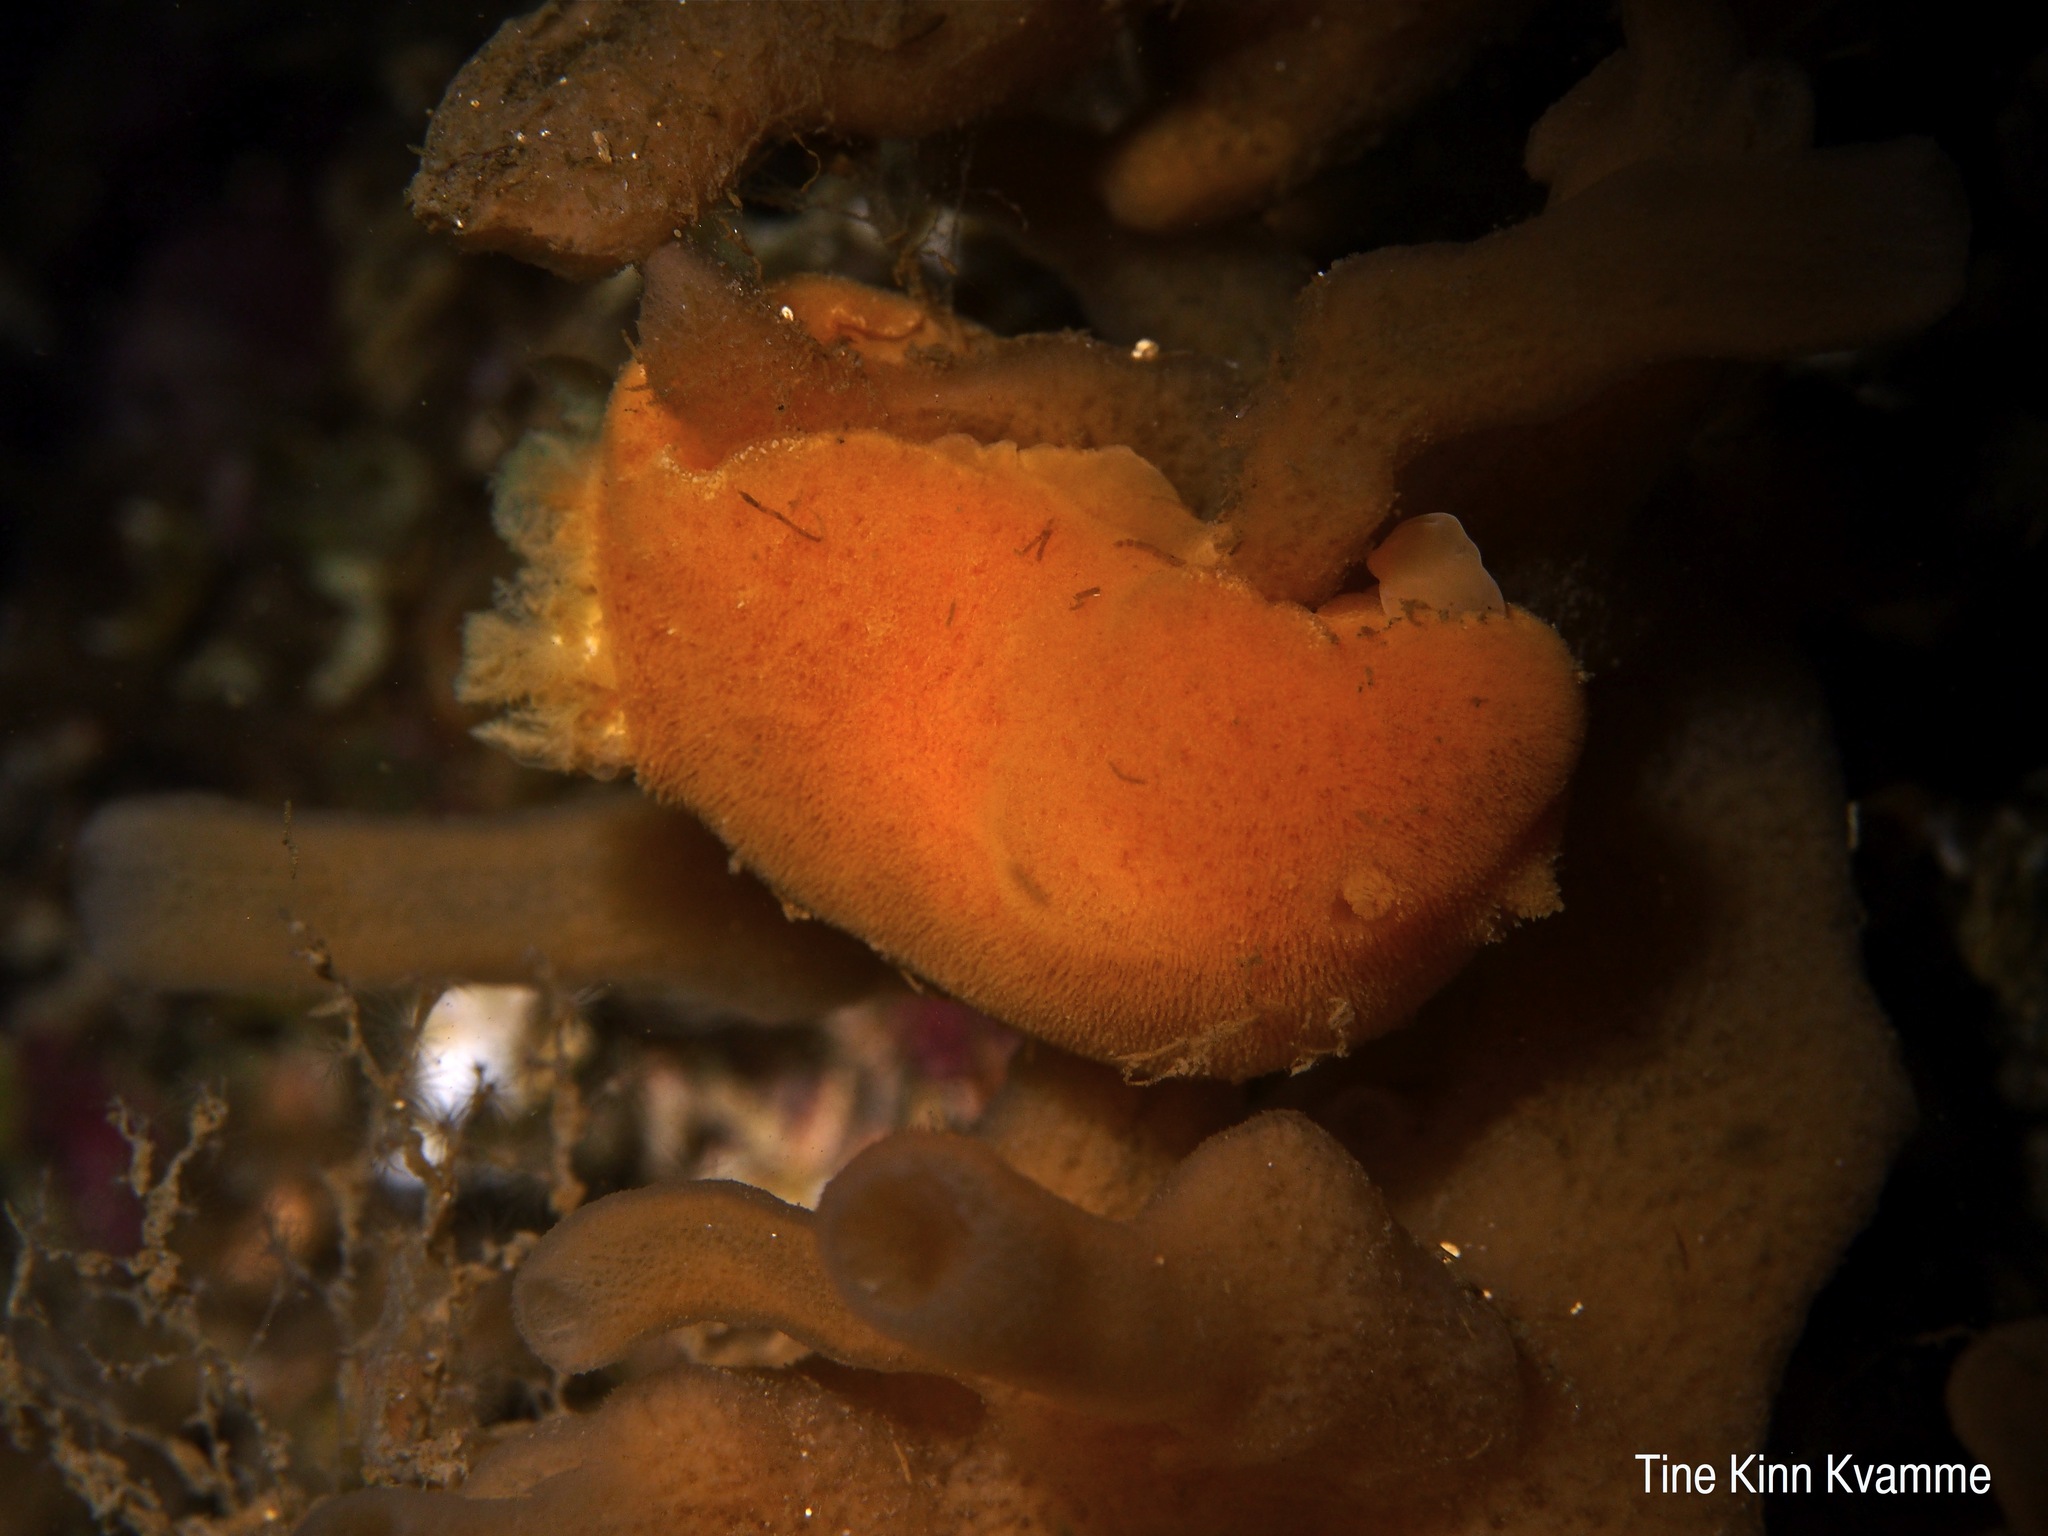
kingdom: Animalia
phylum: Mollusca
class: Gastropoda
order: Nudibranchia
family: Discodorididae
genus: Jorunna
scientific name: Jorunna tomentosa
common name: Grey sea slug
